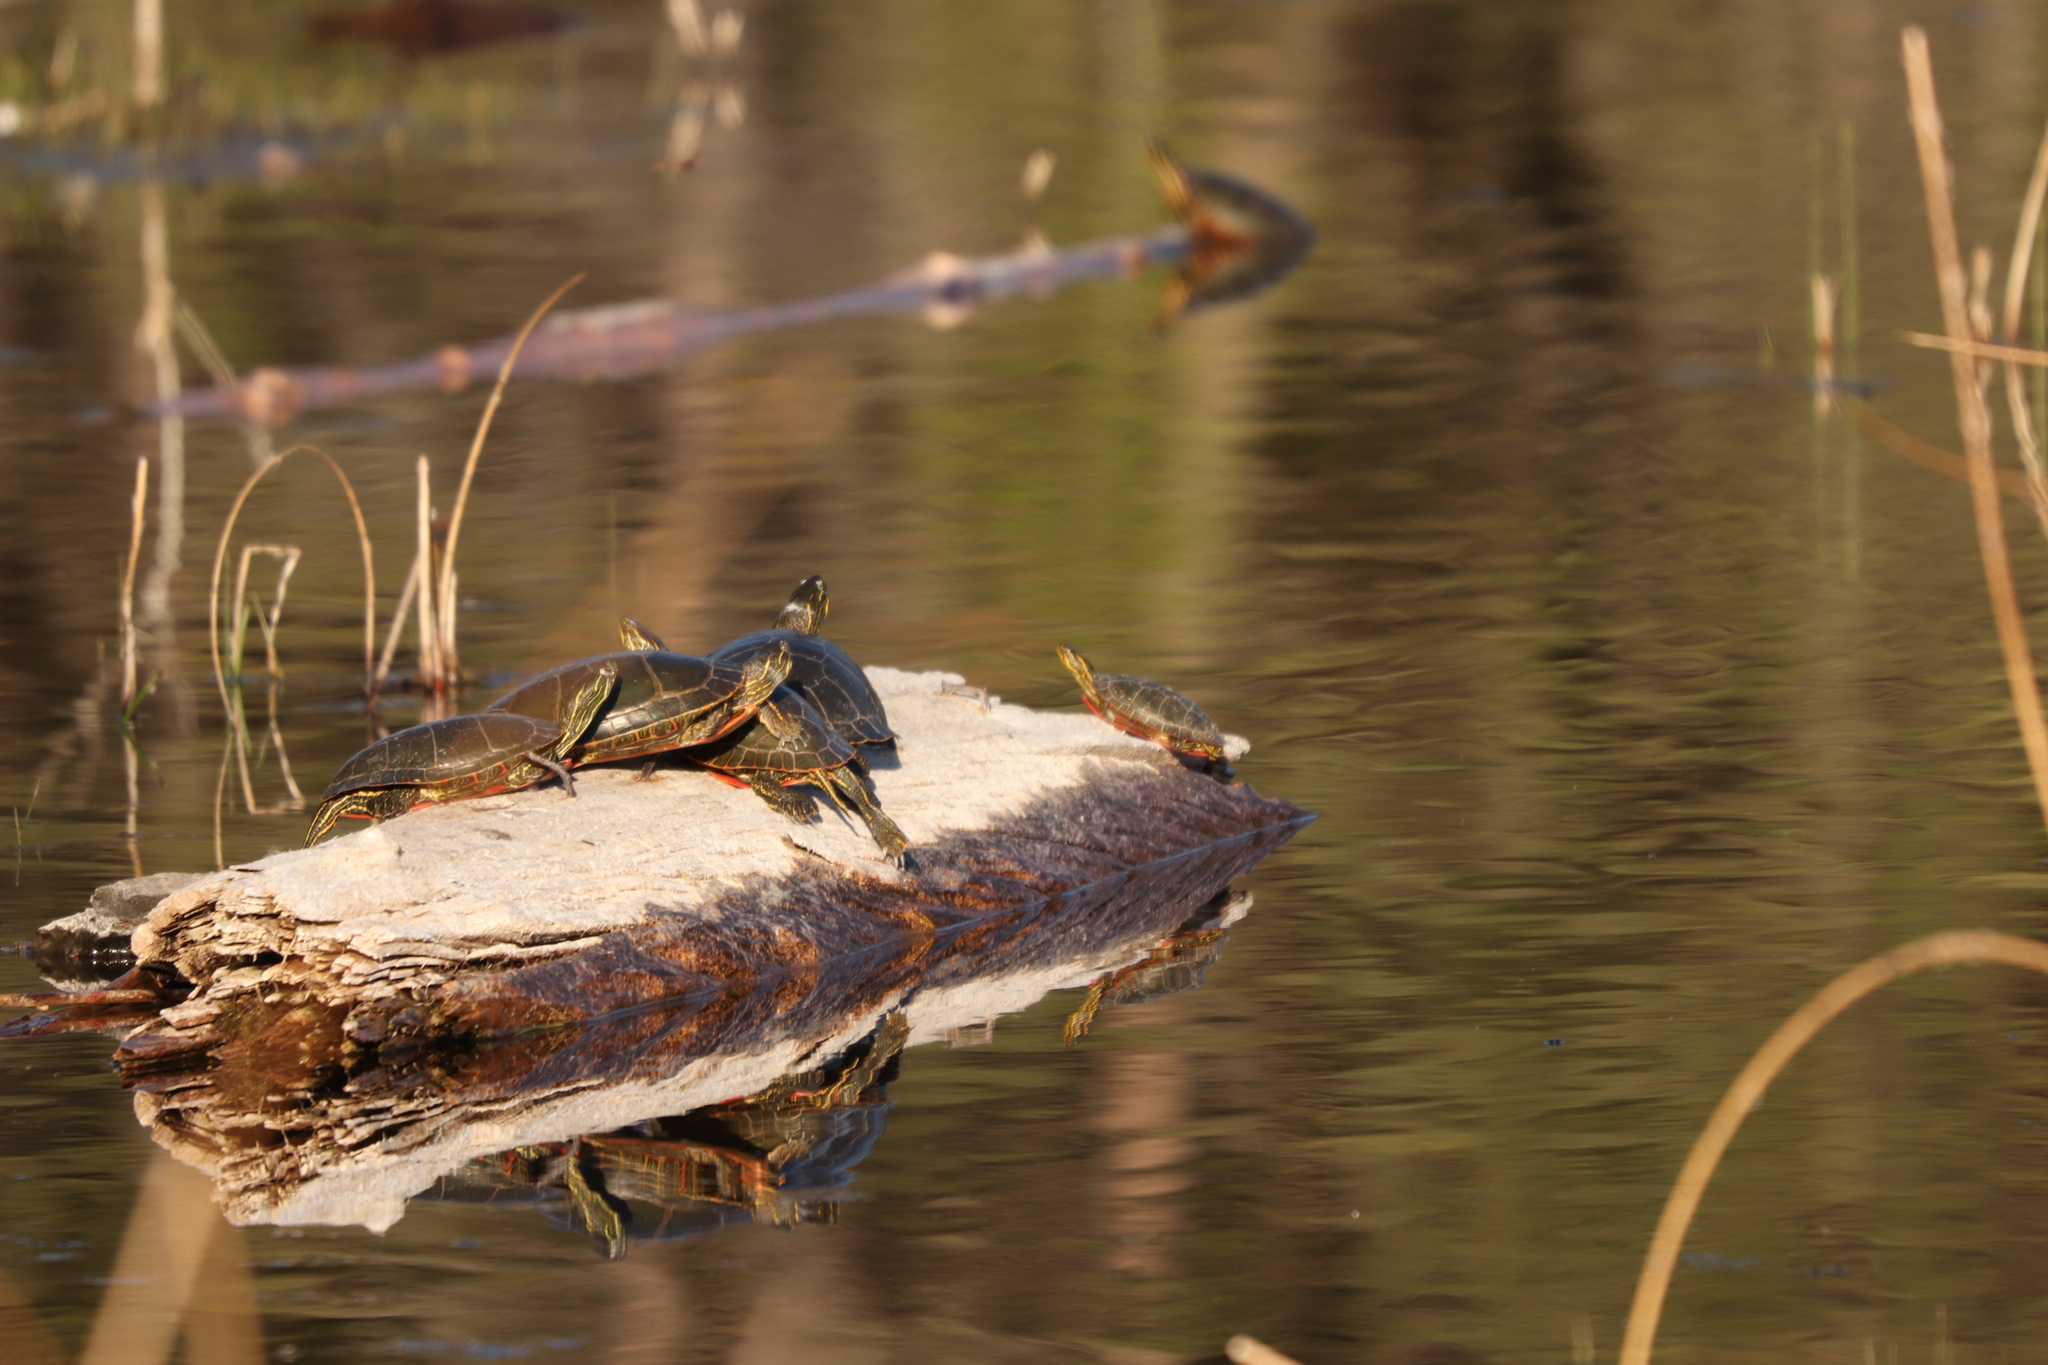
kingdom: Animalia
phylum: Chordata
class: Testudines
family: Emydidae
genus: Chrysemys
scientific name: Chrysemys picta
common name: Painted turtle
